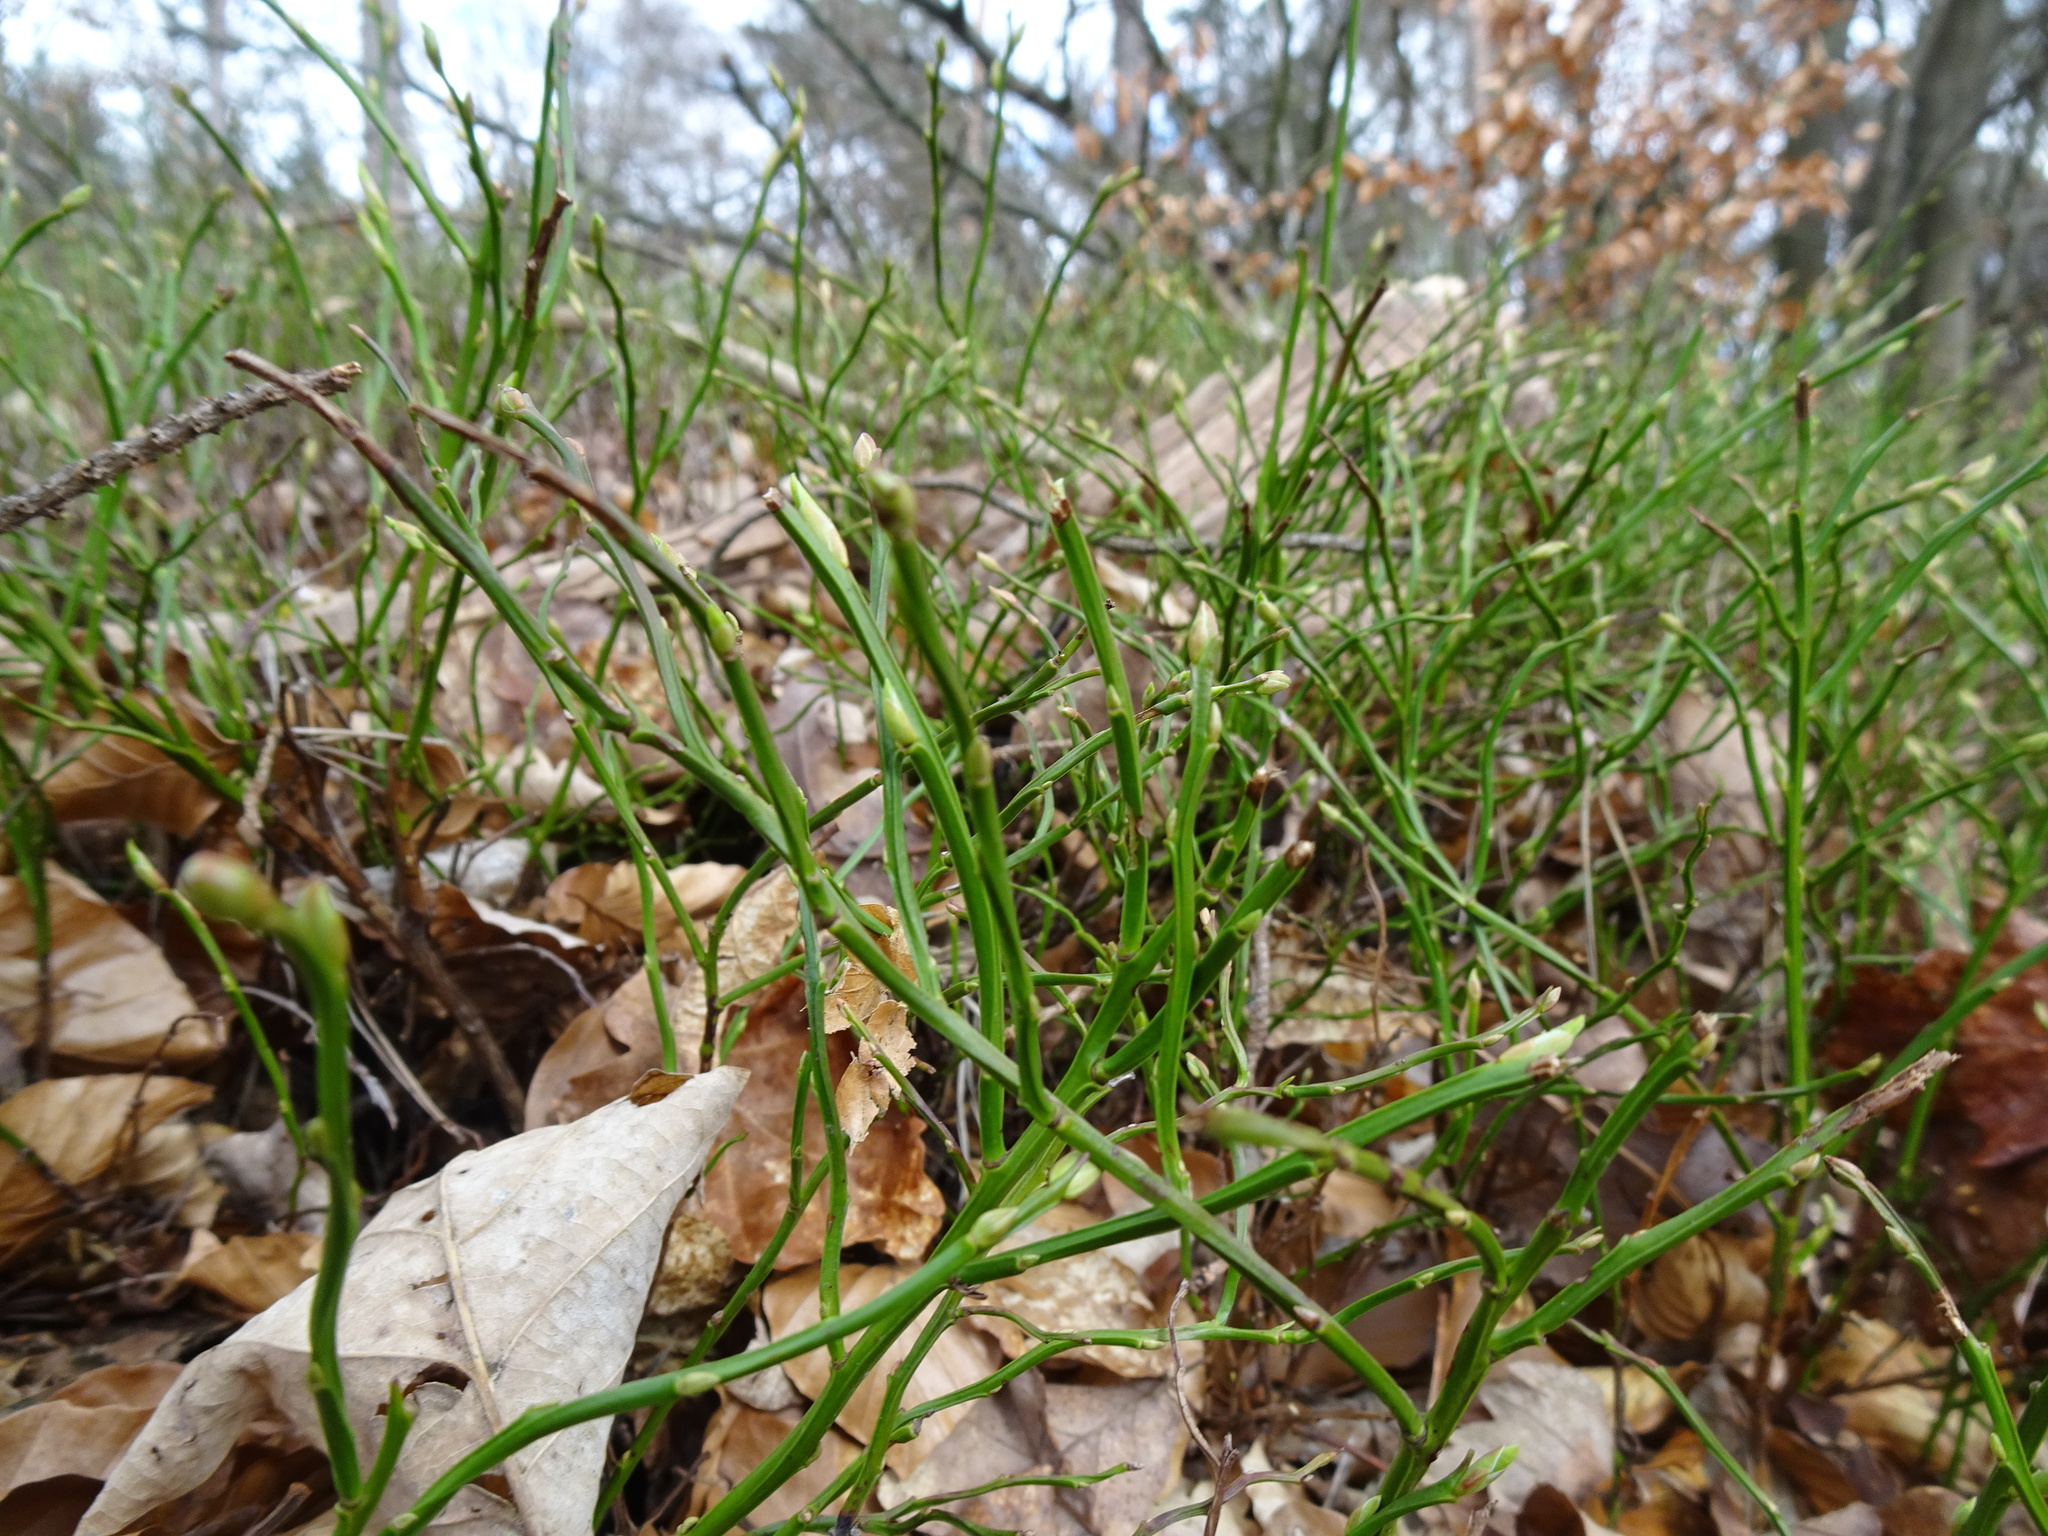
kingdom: Plantae
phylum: Tracheophyta
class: Magnoliopsida
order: Ericales
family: Ericaceae
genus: Vaccinium
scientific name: Vaccinium myrtillus
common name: Bilberry
